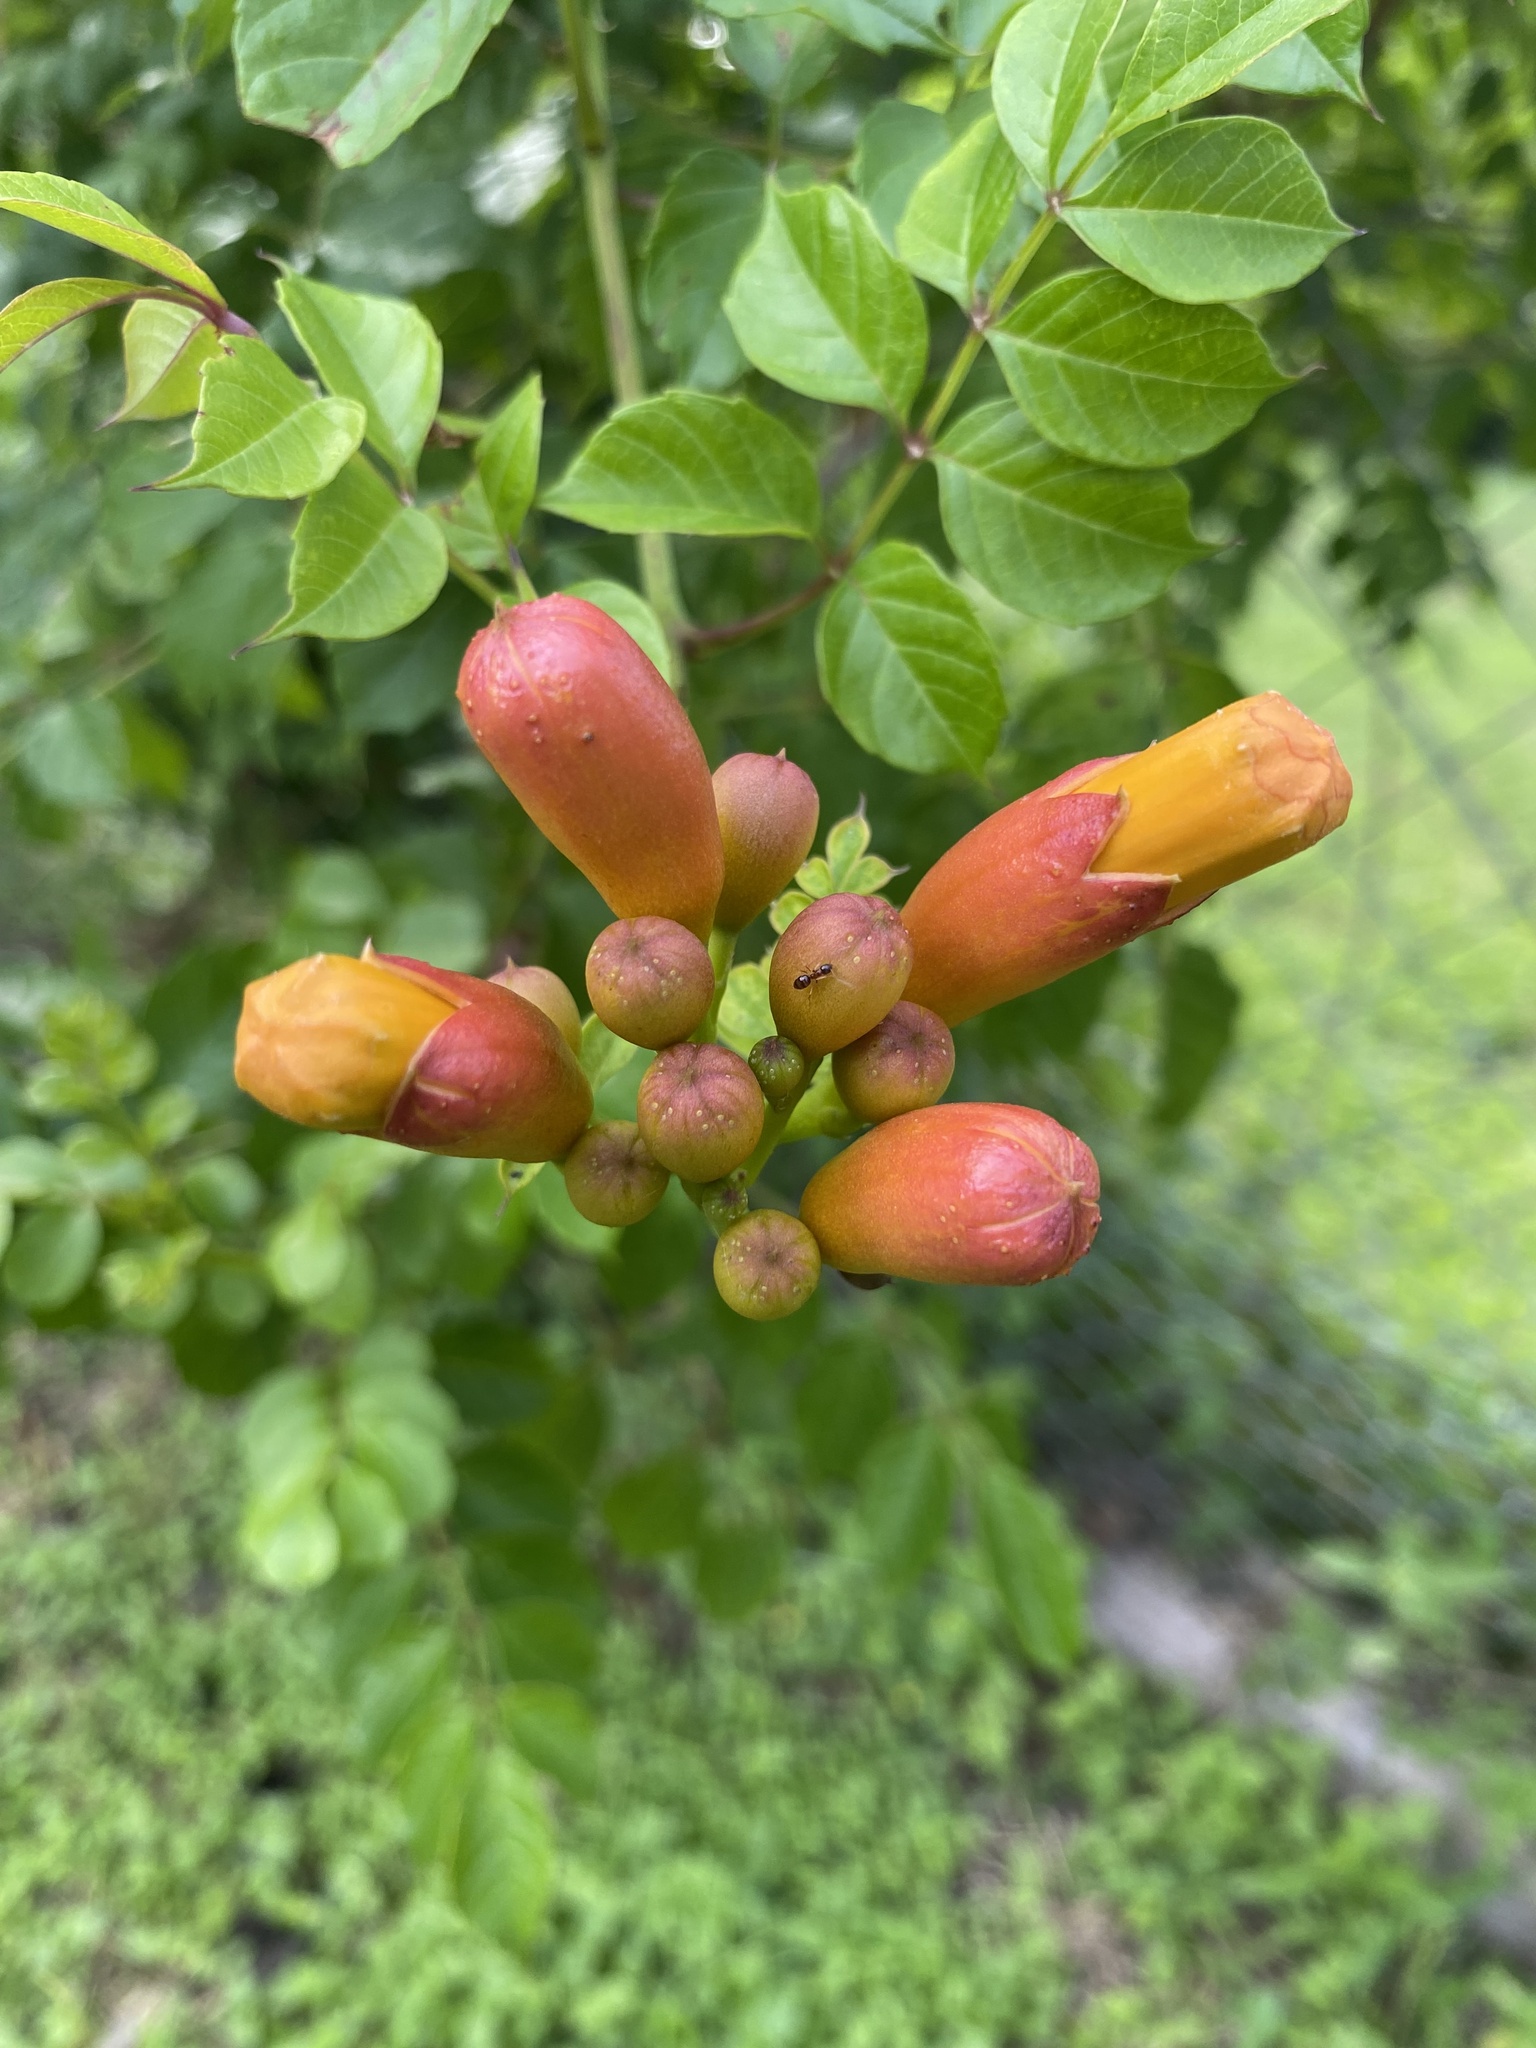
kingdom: Plantae
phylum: Tracheophyta
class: Magnoliopsida
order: Lamiales
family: Bignoniaceae
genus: Campsis
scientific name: Campsis radicans
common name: Trumpet-creeper
